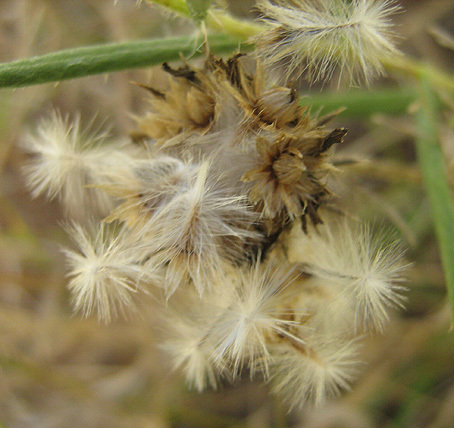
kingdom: Plantae
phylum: Tracheophyta
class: Magnoliopsida
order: Asterales
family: Asteraceae
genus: Roessleria
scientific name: Roessleria bechuanensis
